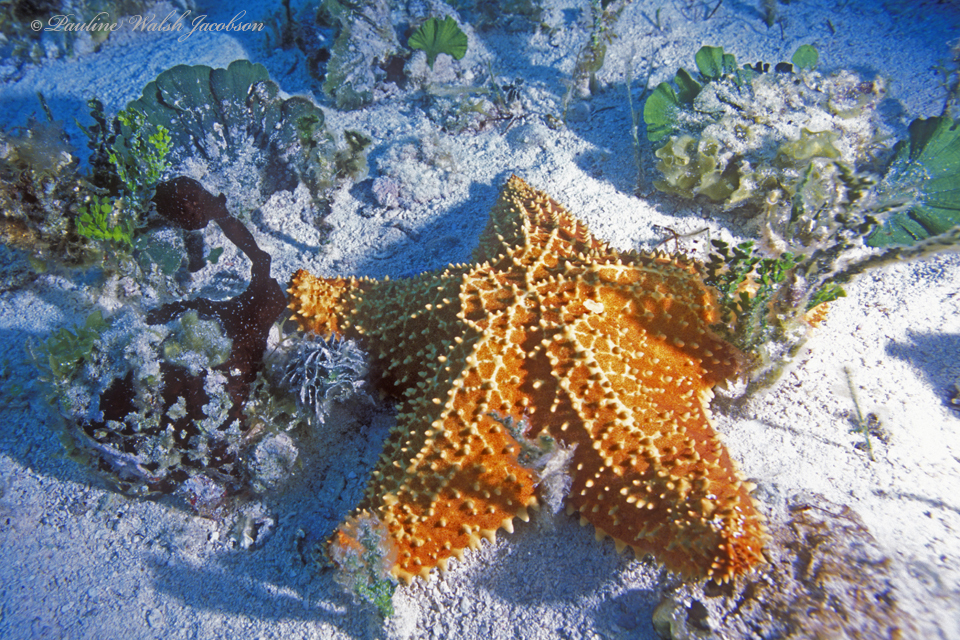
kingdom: Animalia
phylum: Echinodermata
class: Asteroidea
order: Valvatida
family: Oreasteridae
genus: Oreaster
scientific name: Oreaster reticulatus
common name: Cushion sea star
